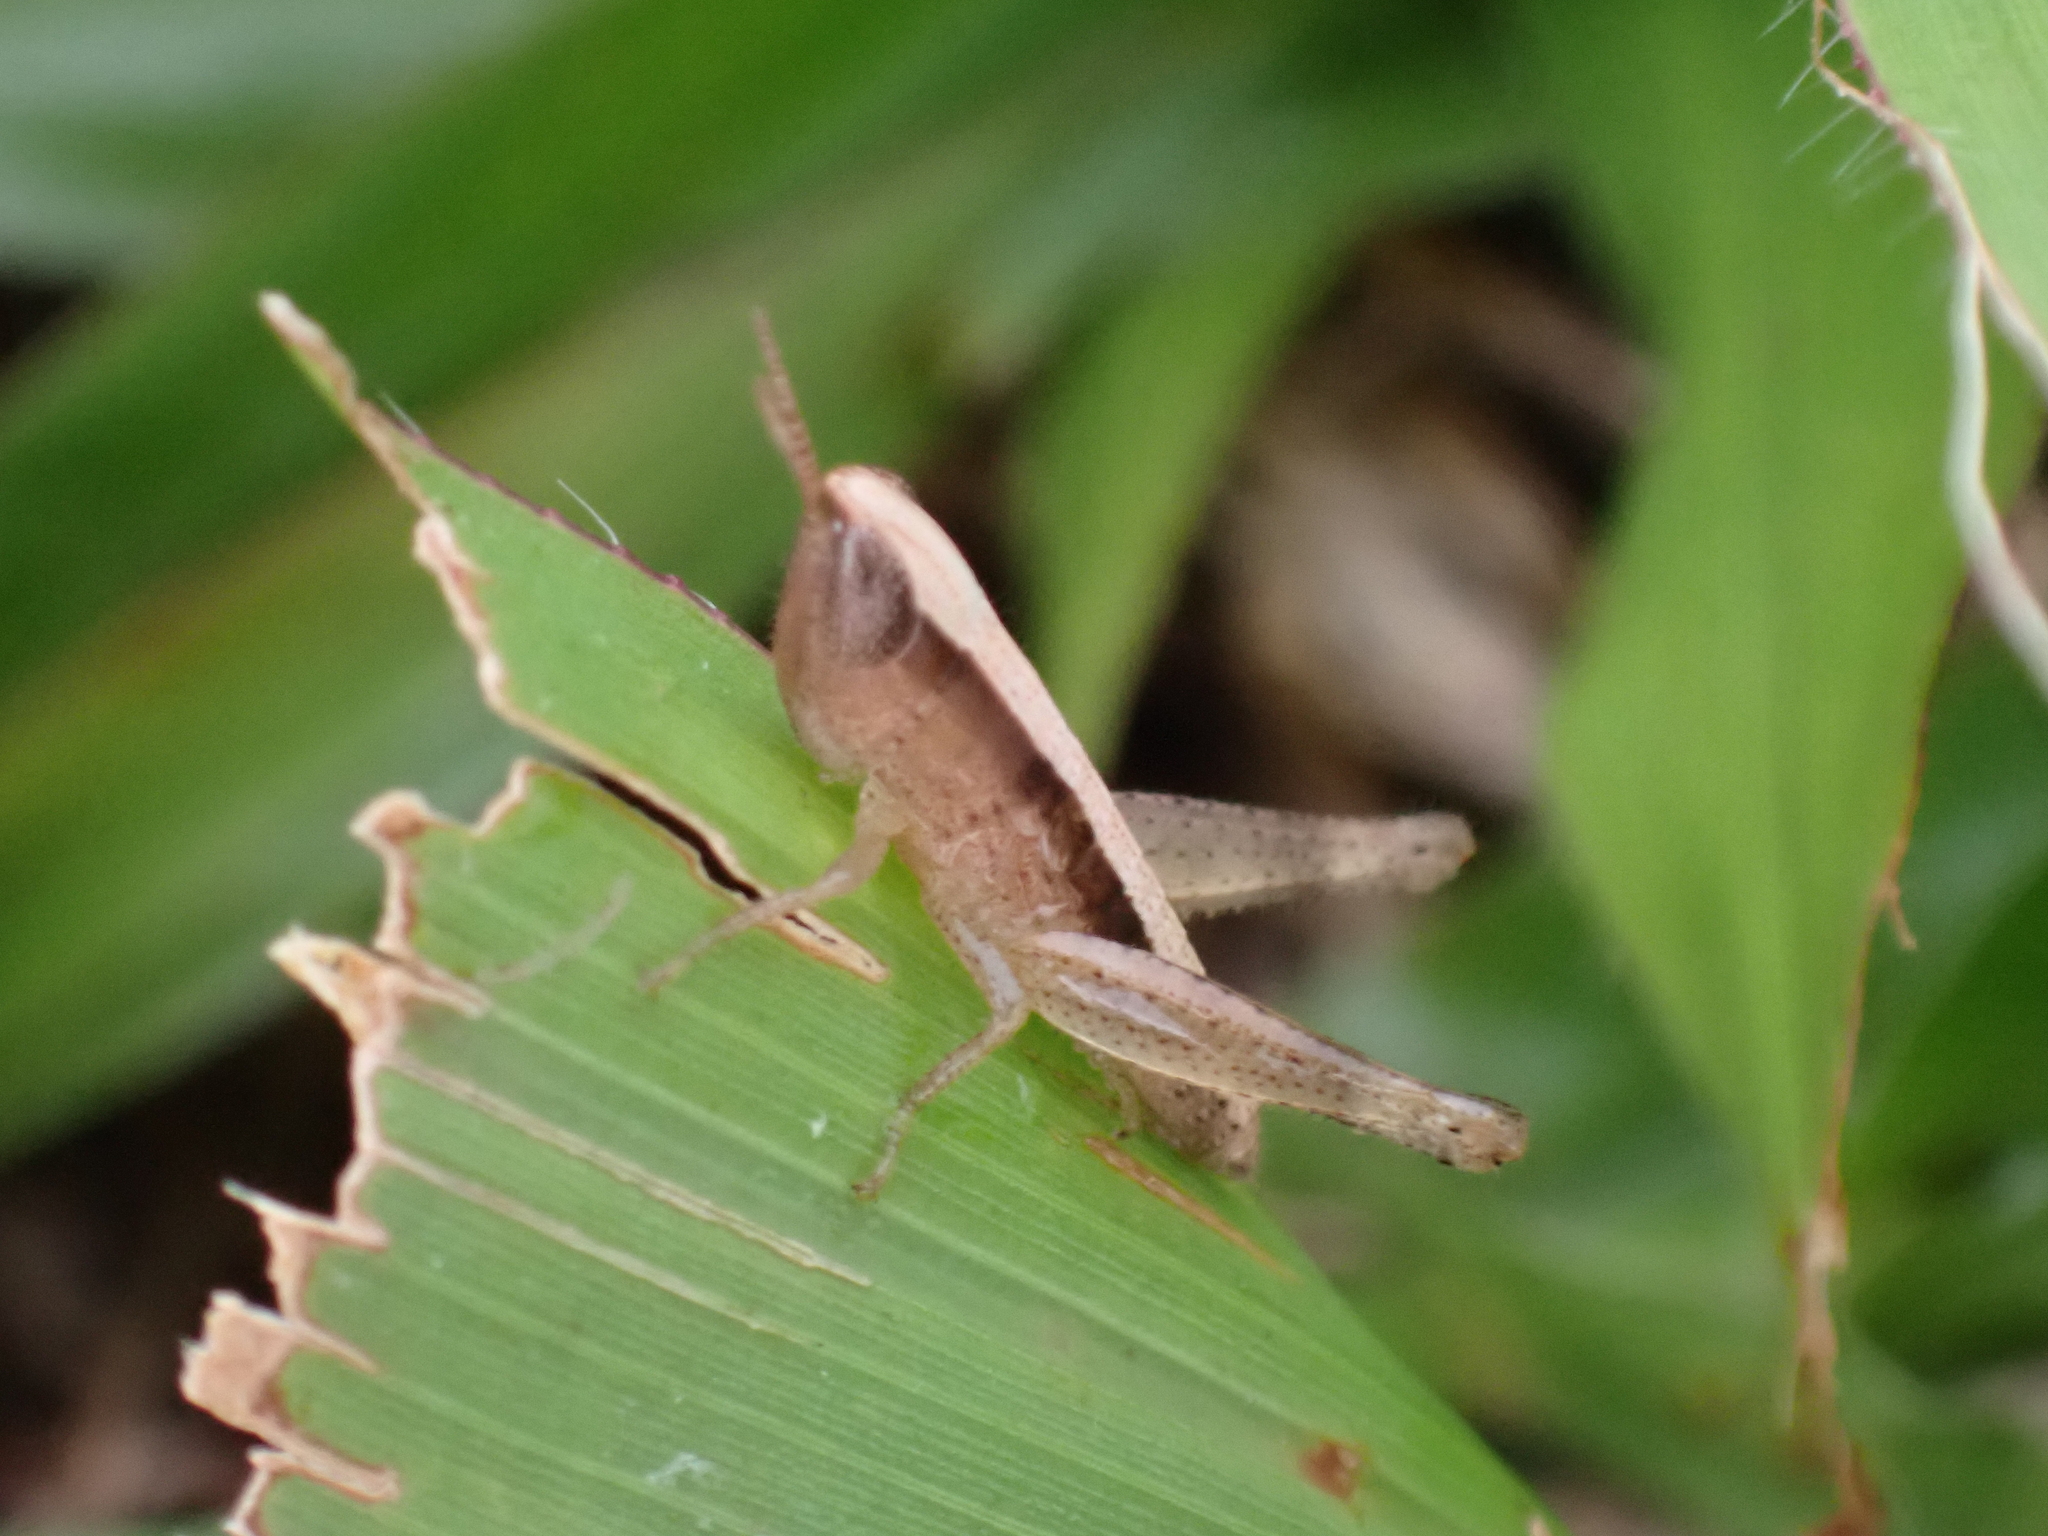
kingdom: Animalia
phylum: Arthropoda
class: Insecta
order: Orthoptera
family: Acrididae
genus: Dichromorpha
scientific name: Dichromorpha elegans
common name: Elegant grasshopper
